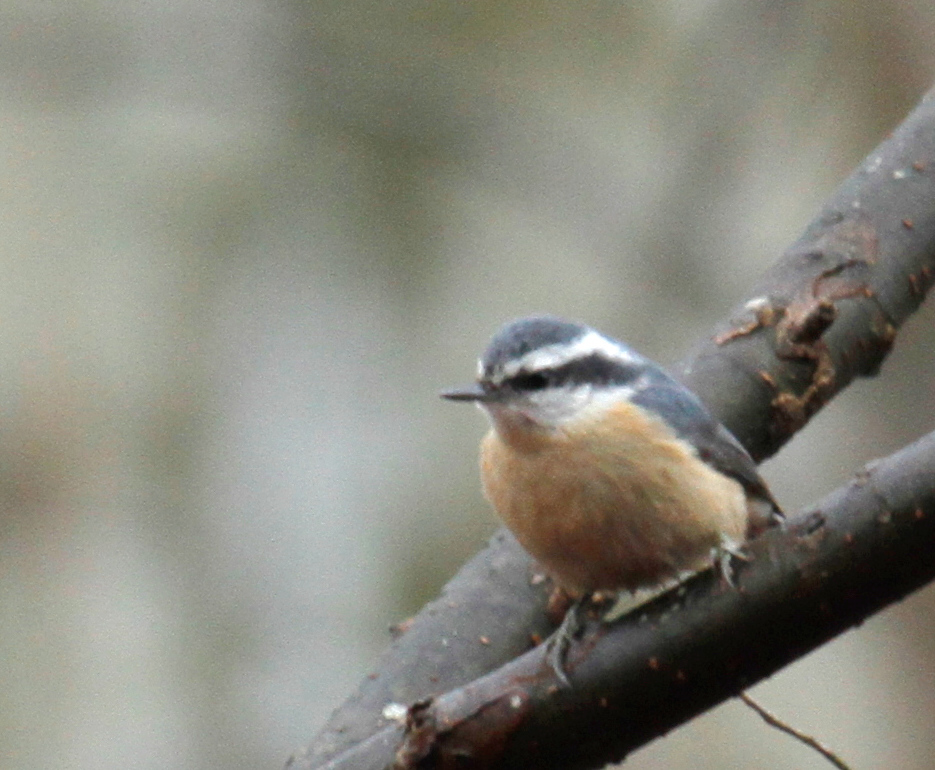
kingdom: Animalia
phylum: Chordata
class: Aves
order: Passeriformes
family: Sittidae
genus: Sitta
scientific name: Sitta canadensis
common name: Red-breasted nuthatch
